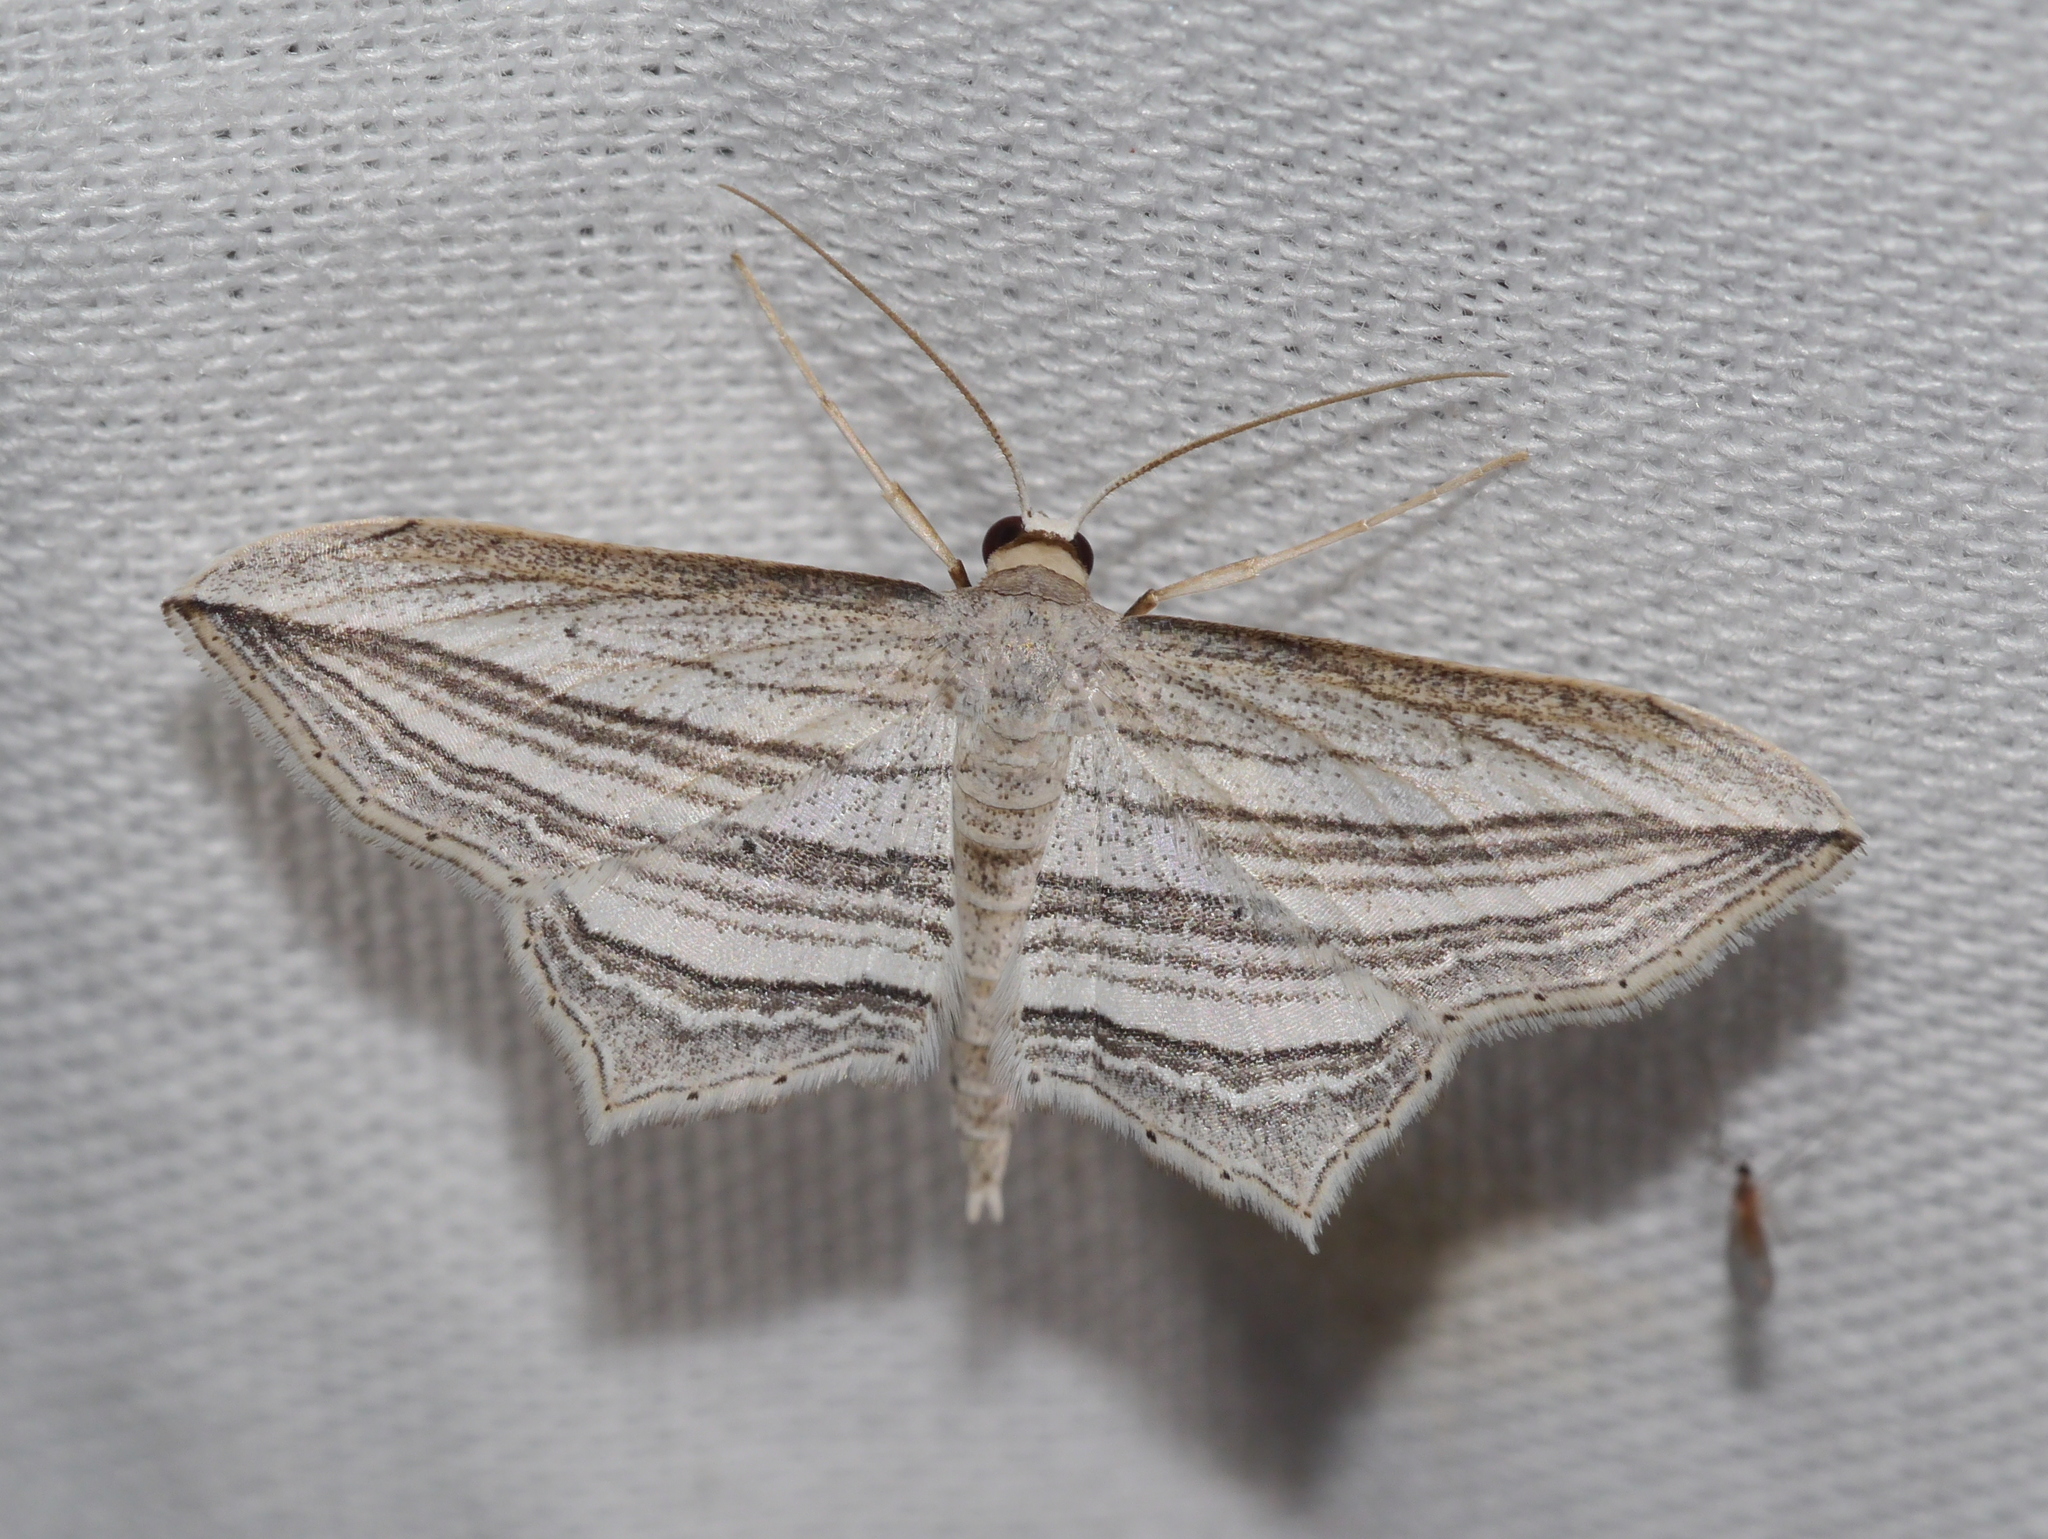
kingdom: Animalia
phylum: Arthropoda
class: Insecta
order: Lepidoptera
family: Geometridae
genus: Arcobara
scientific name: Arcobara multilineata
